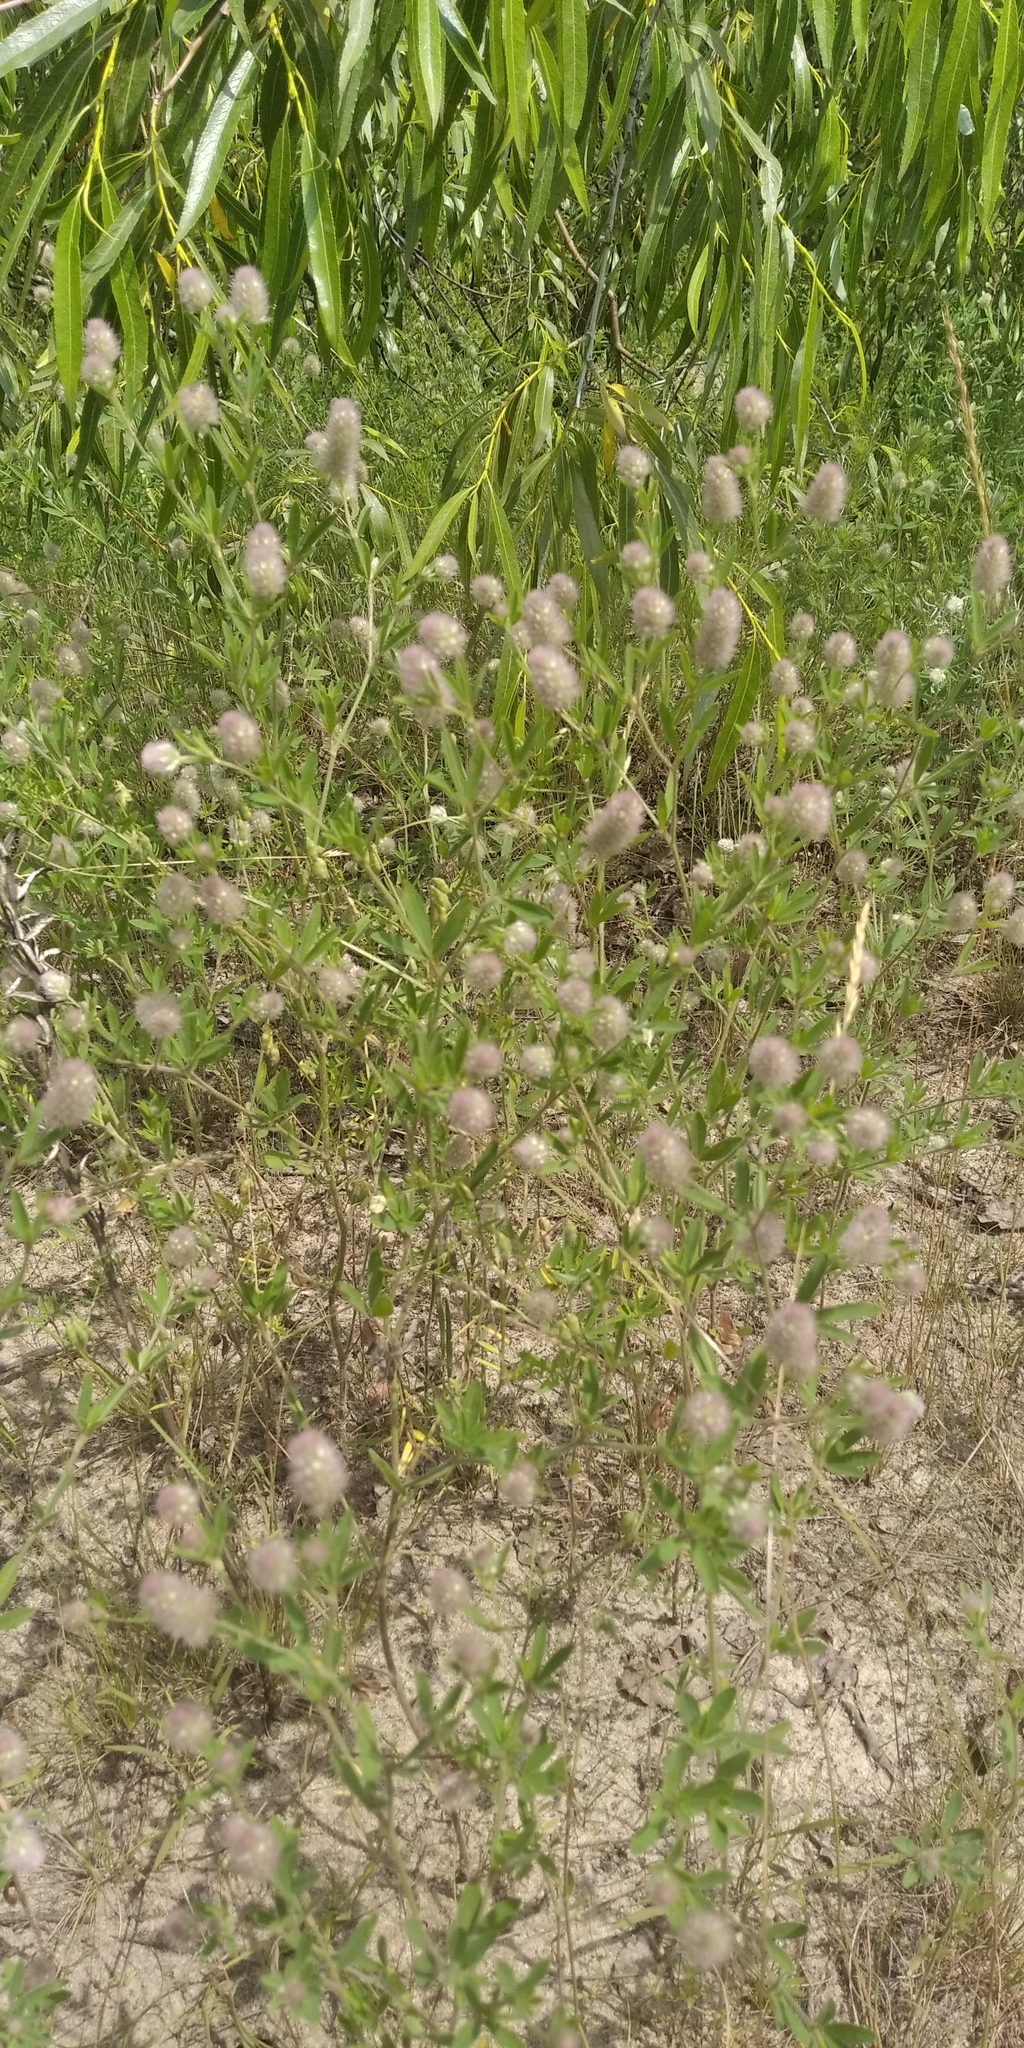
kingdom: Plantae
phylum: Tracheophyta
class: Magnoliopsida
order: Fabales
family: Fabaceae
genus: Trifolium
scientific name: Trifolium arvense
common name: Hare's-foot clover
